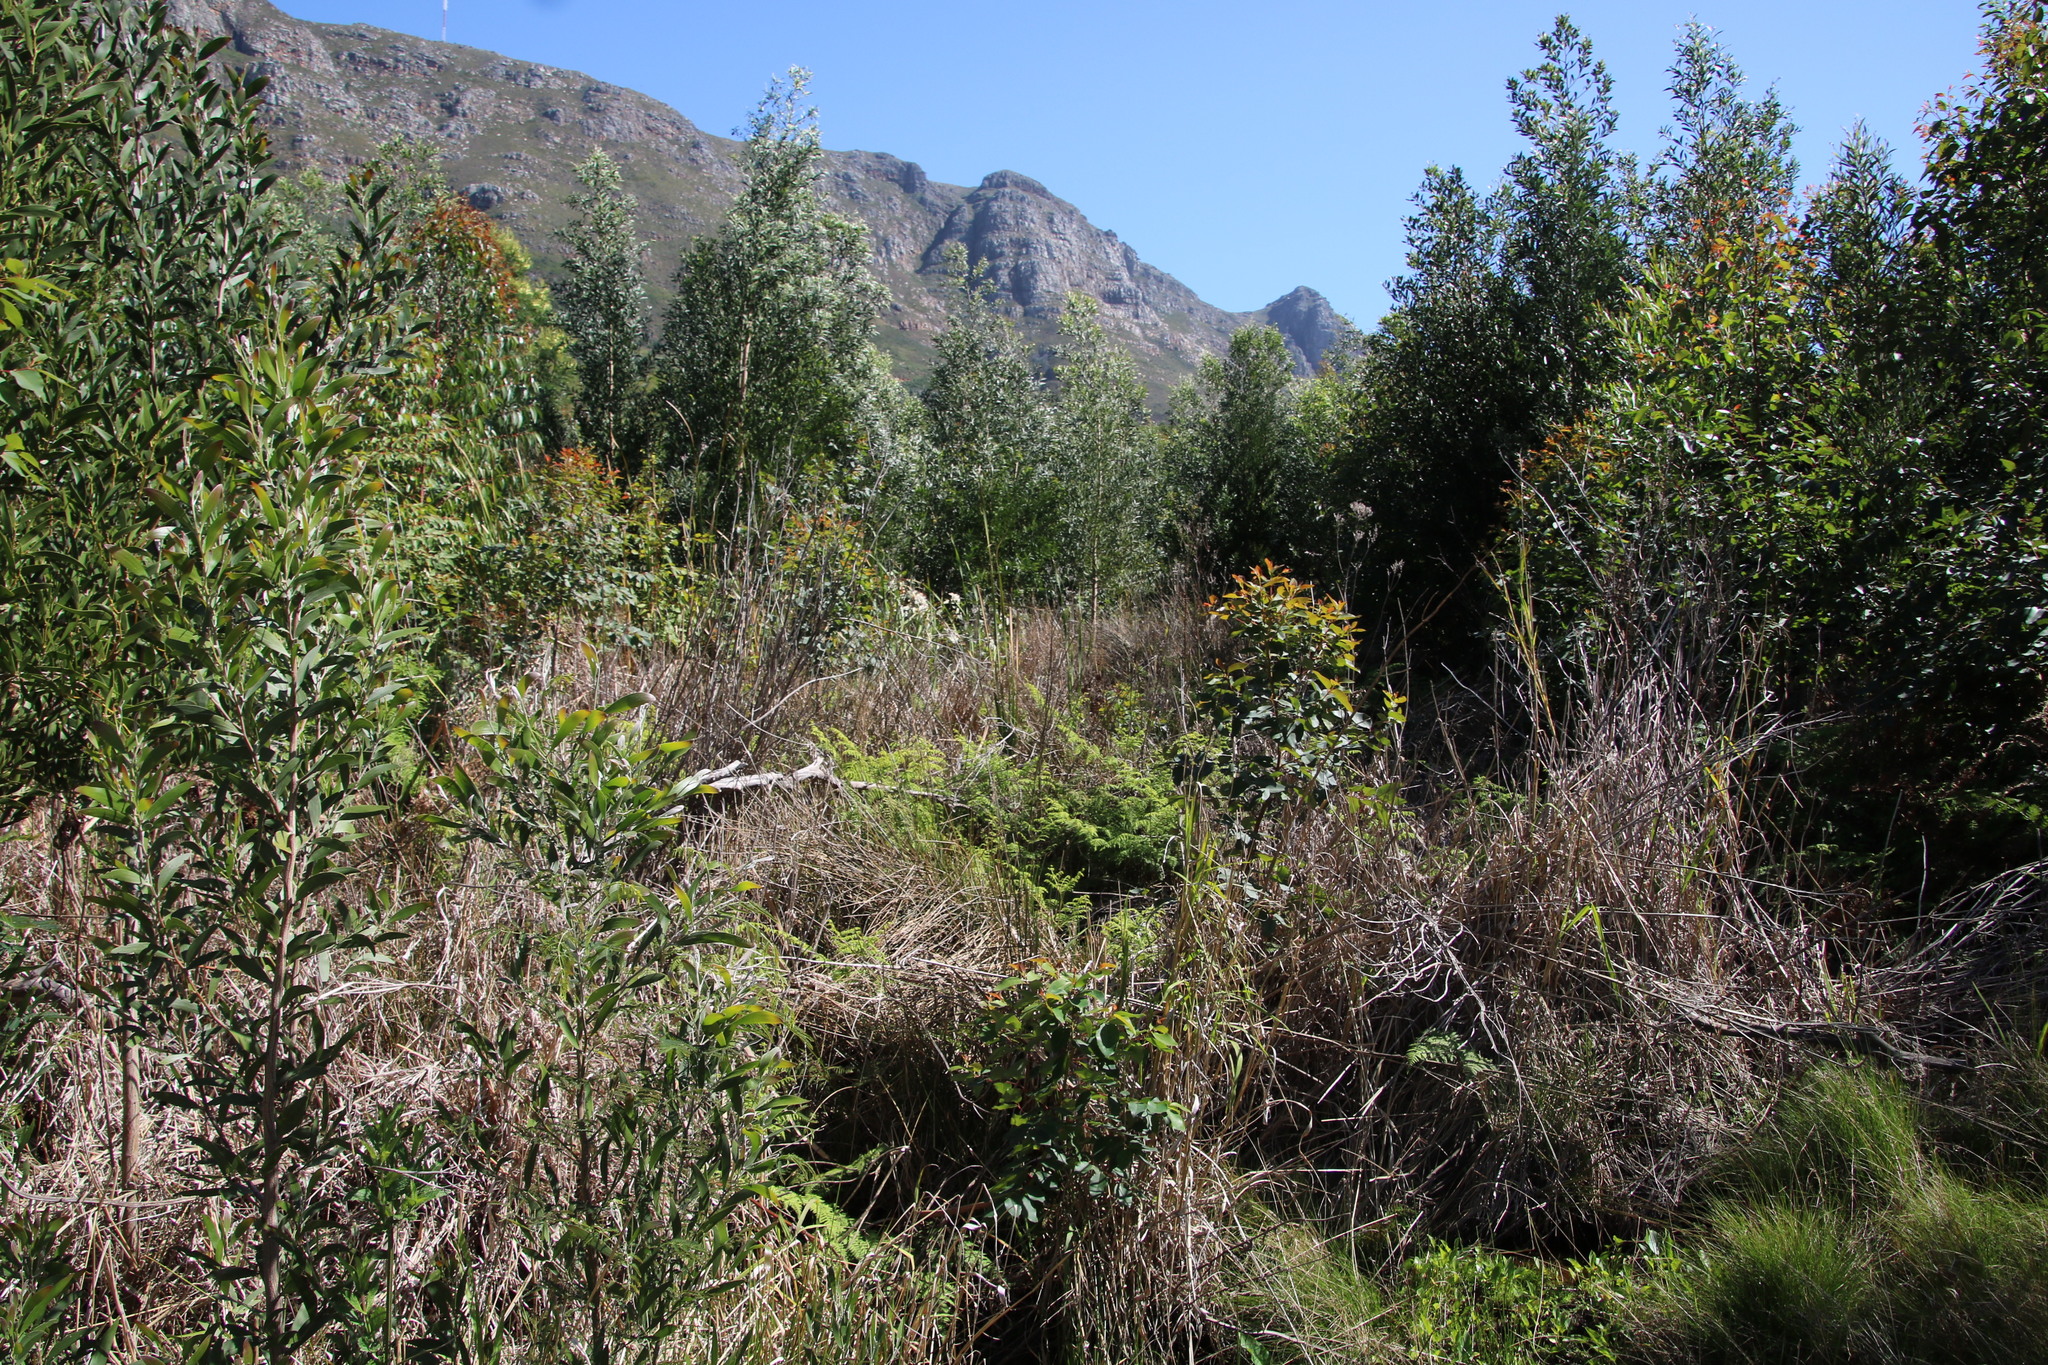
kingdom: Plantae
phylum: Tracheophyta
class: Magnoliopsida
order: Fabales
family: Fabaceae
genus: Acacia
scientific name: Acacia melanoxylon
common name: Blackwood
